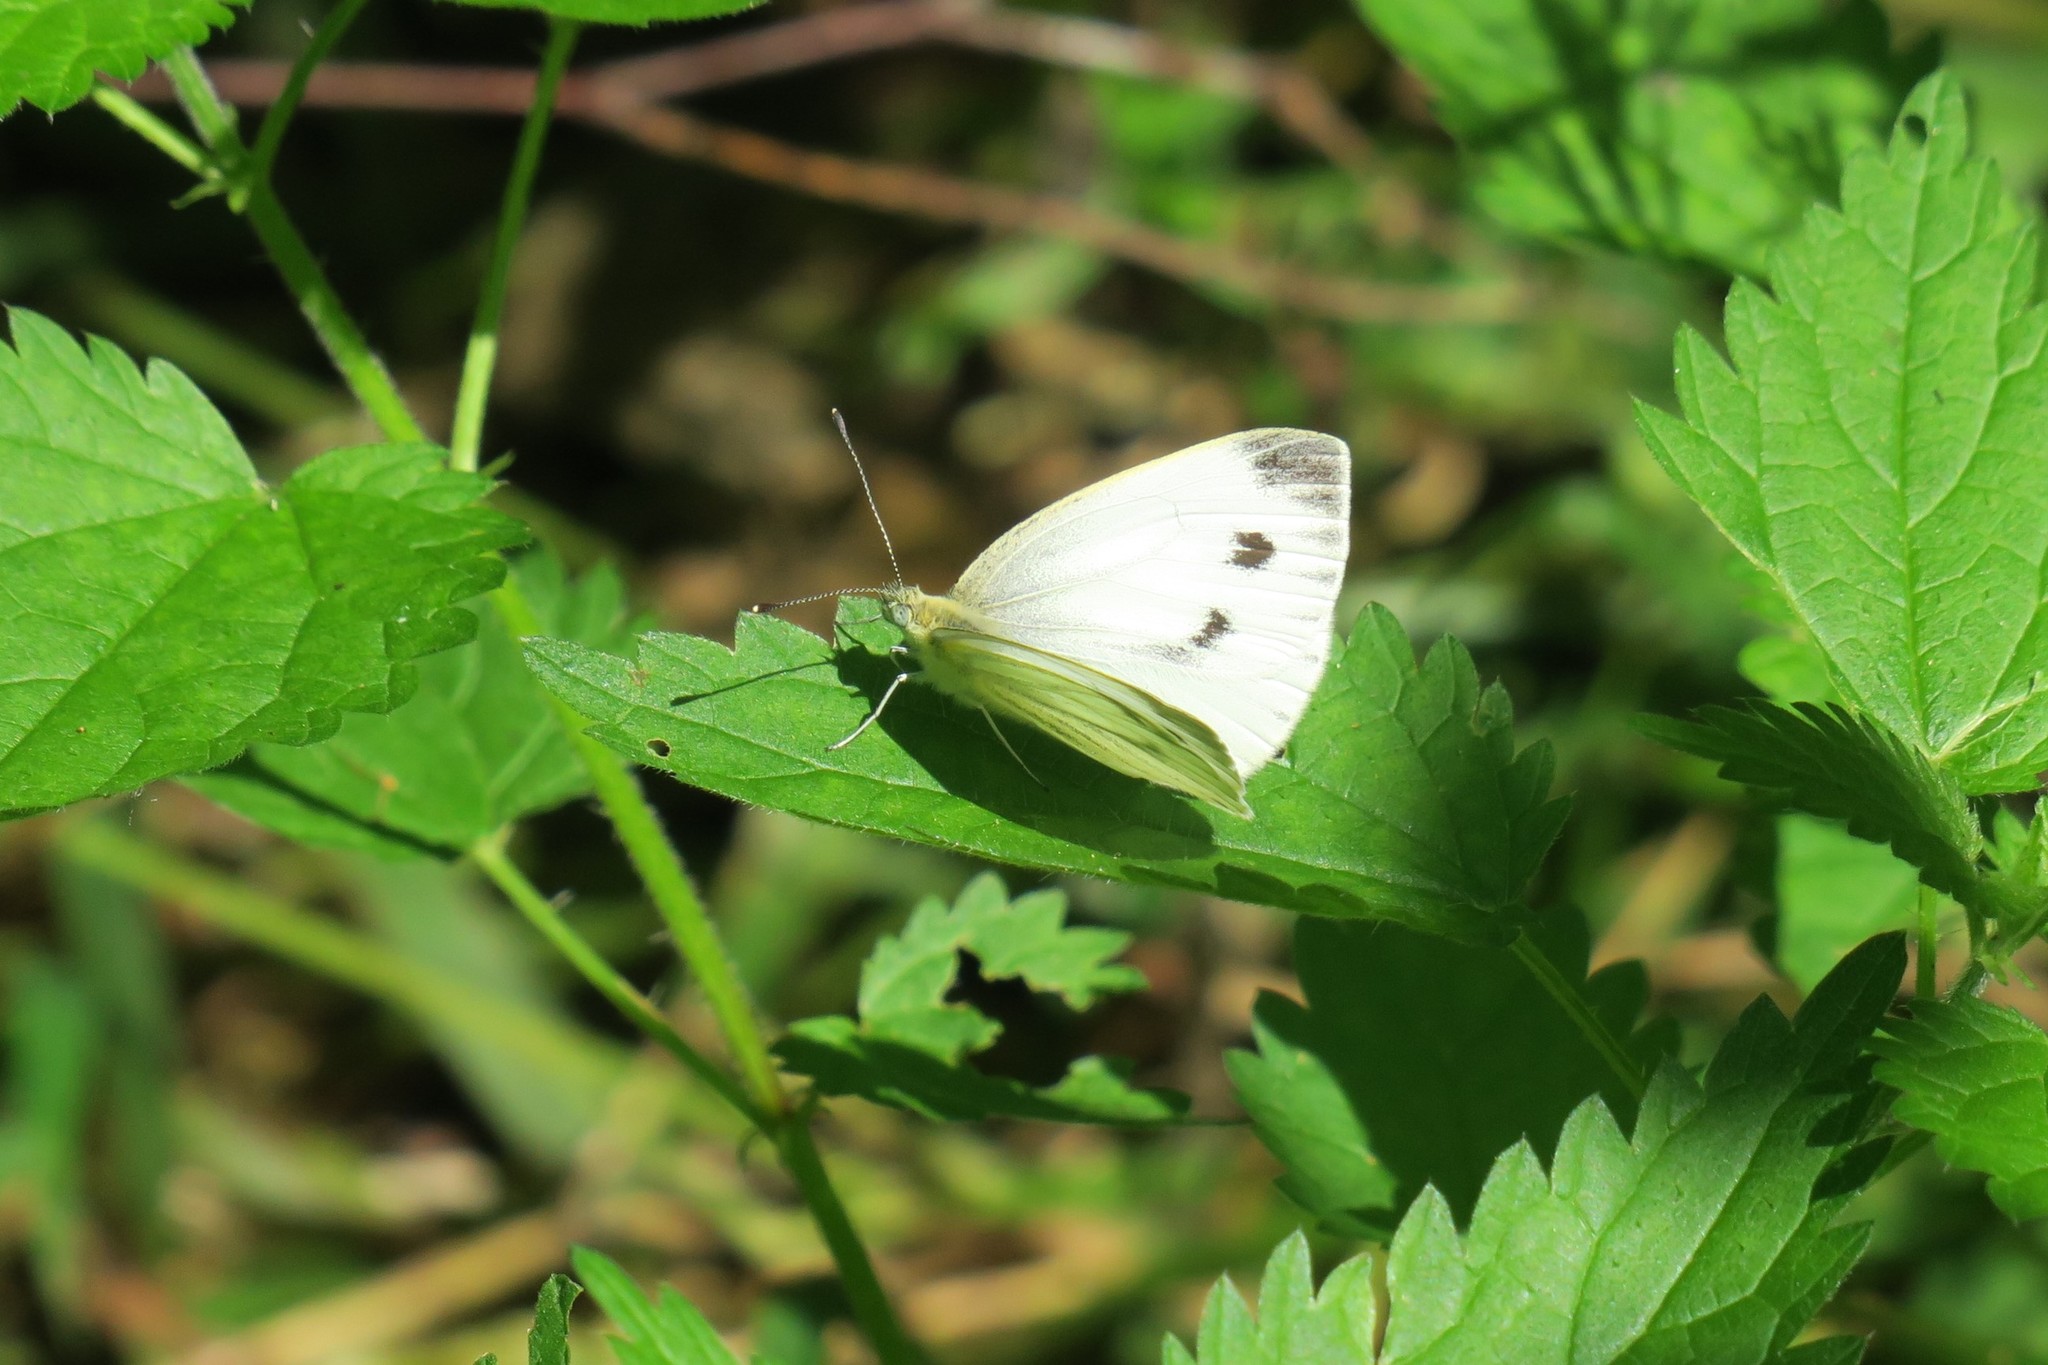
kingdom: Animalia
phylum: Arthropoda
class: Insecta
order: Lepidoptera
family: Pieridae
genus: Pieris
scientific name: Pieris napi
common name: Green-veined white
